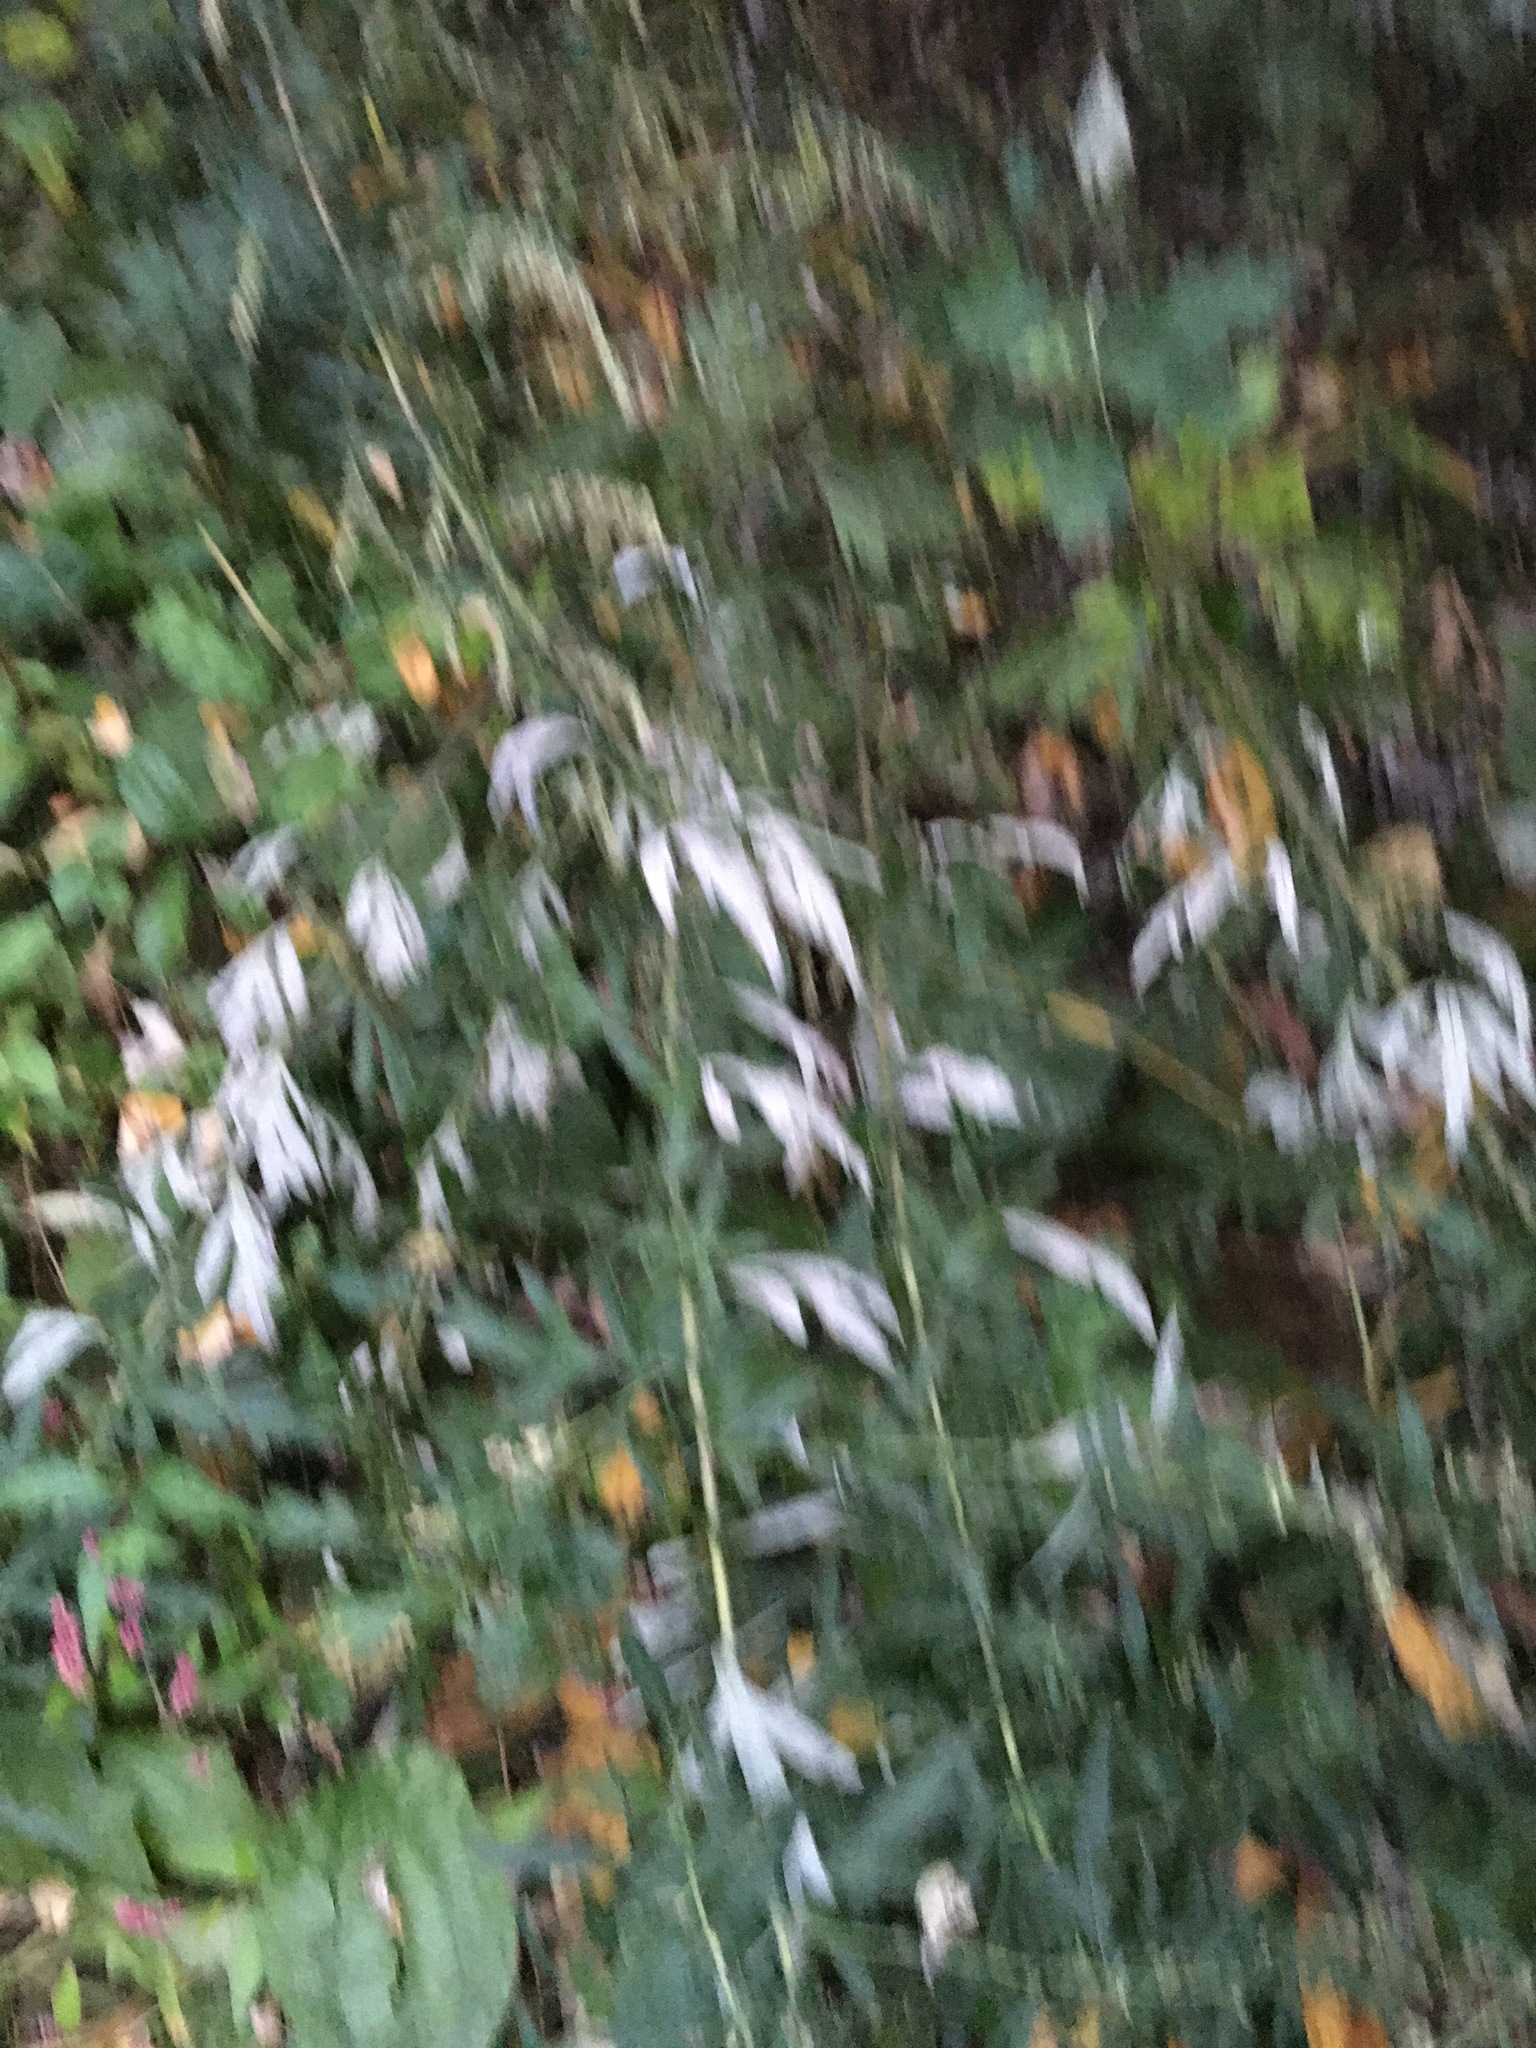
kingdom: Plantae
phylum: Tracheophyta
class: Magnoliopsida
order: Asterales
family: Asteraceae
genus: Artemisia
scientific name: Artemisia vulgaris
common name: Mugwort
